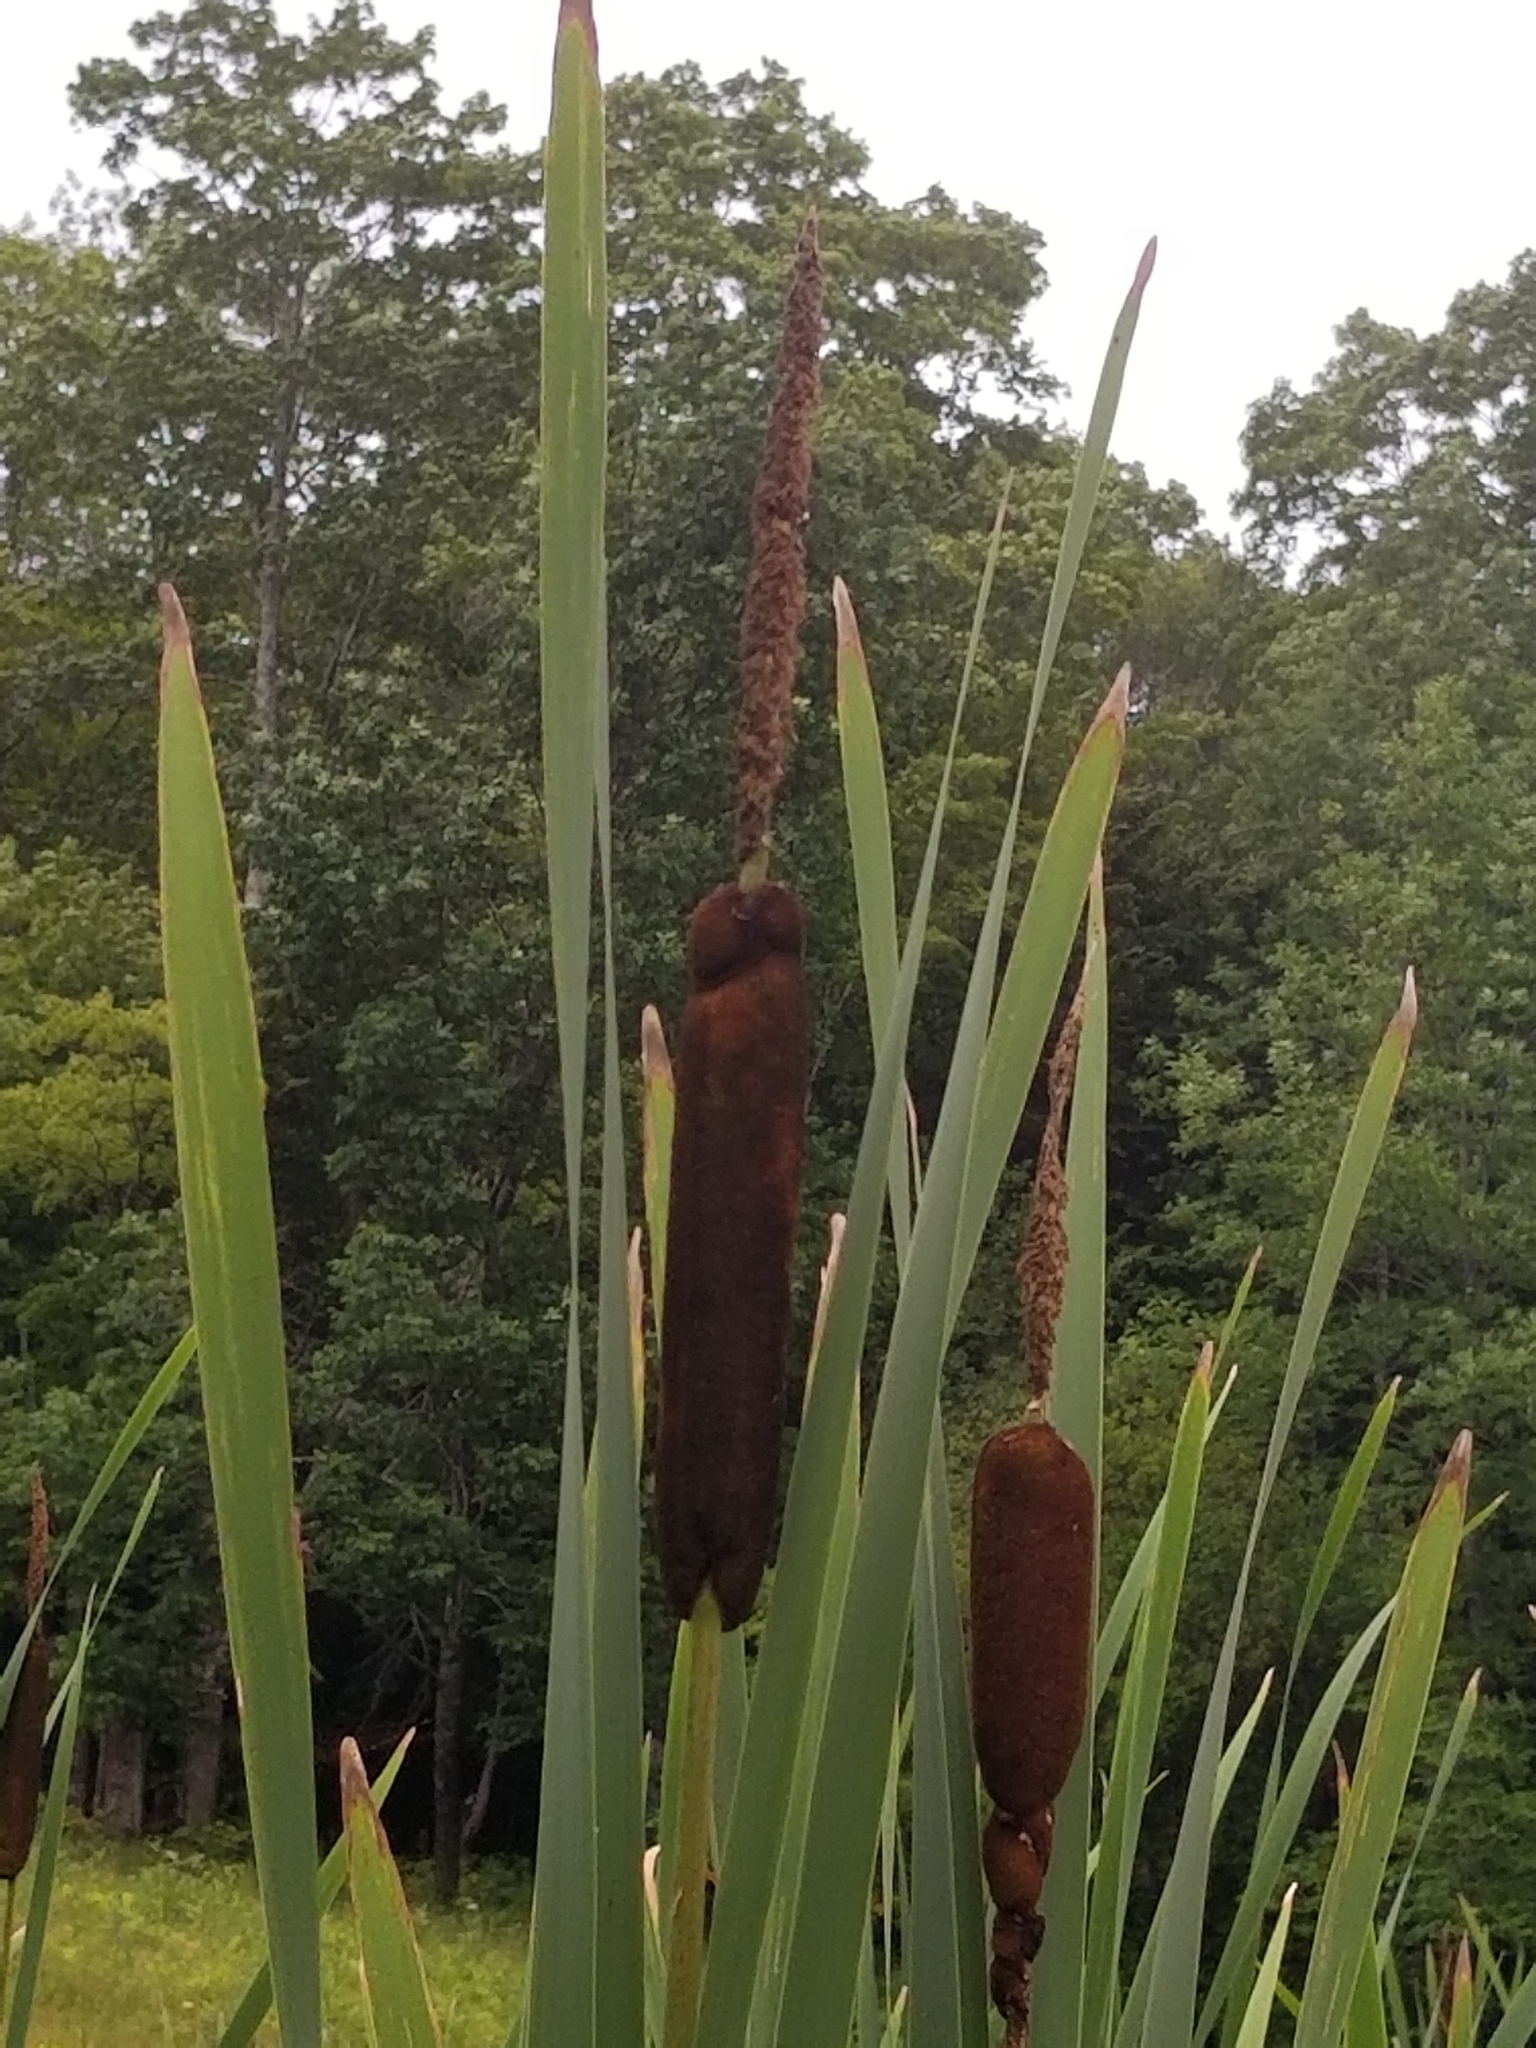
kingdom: Plantae
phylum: Tracheophyta
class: Liliopsida
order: Poales
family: Typhaceae
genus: Typha
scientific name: Typha latifolia
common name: Broadleaf cattail
